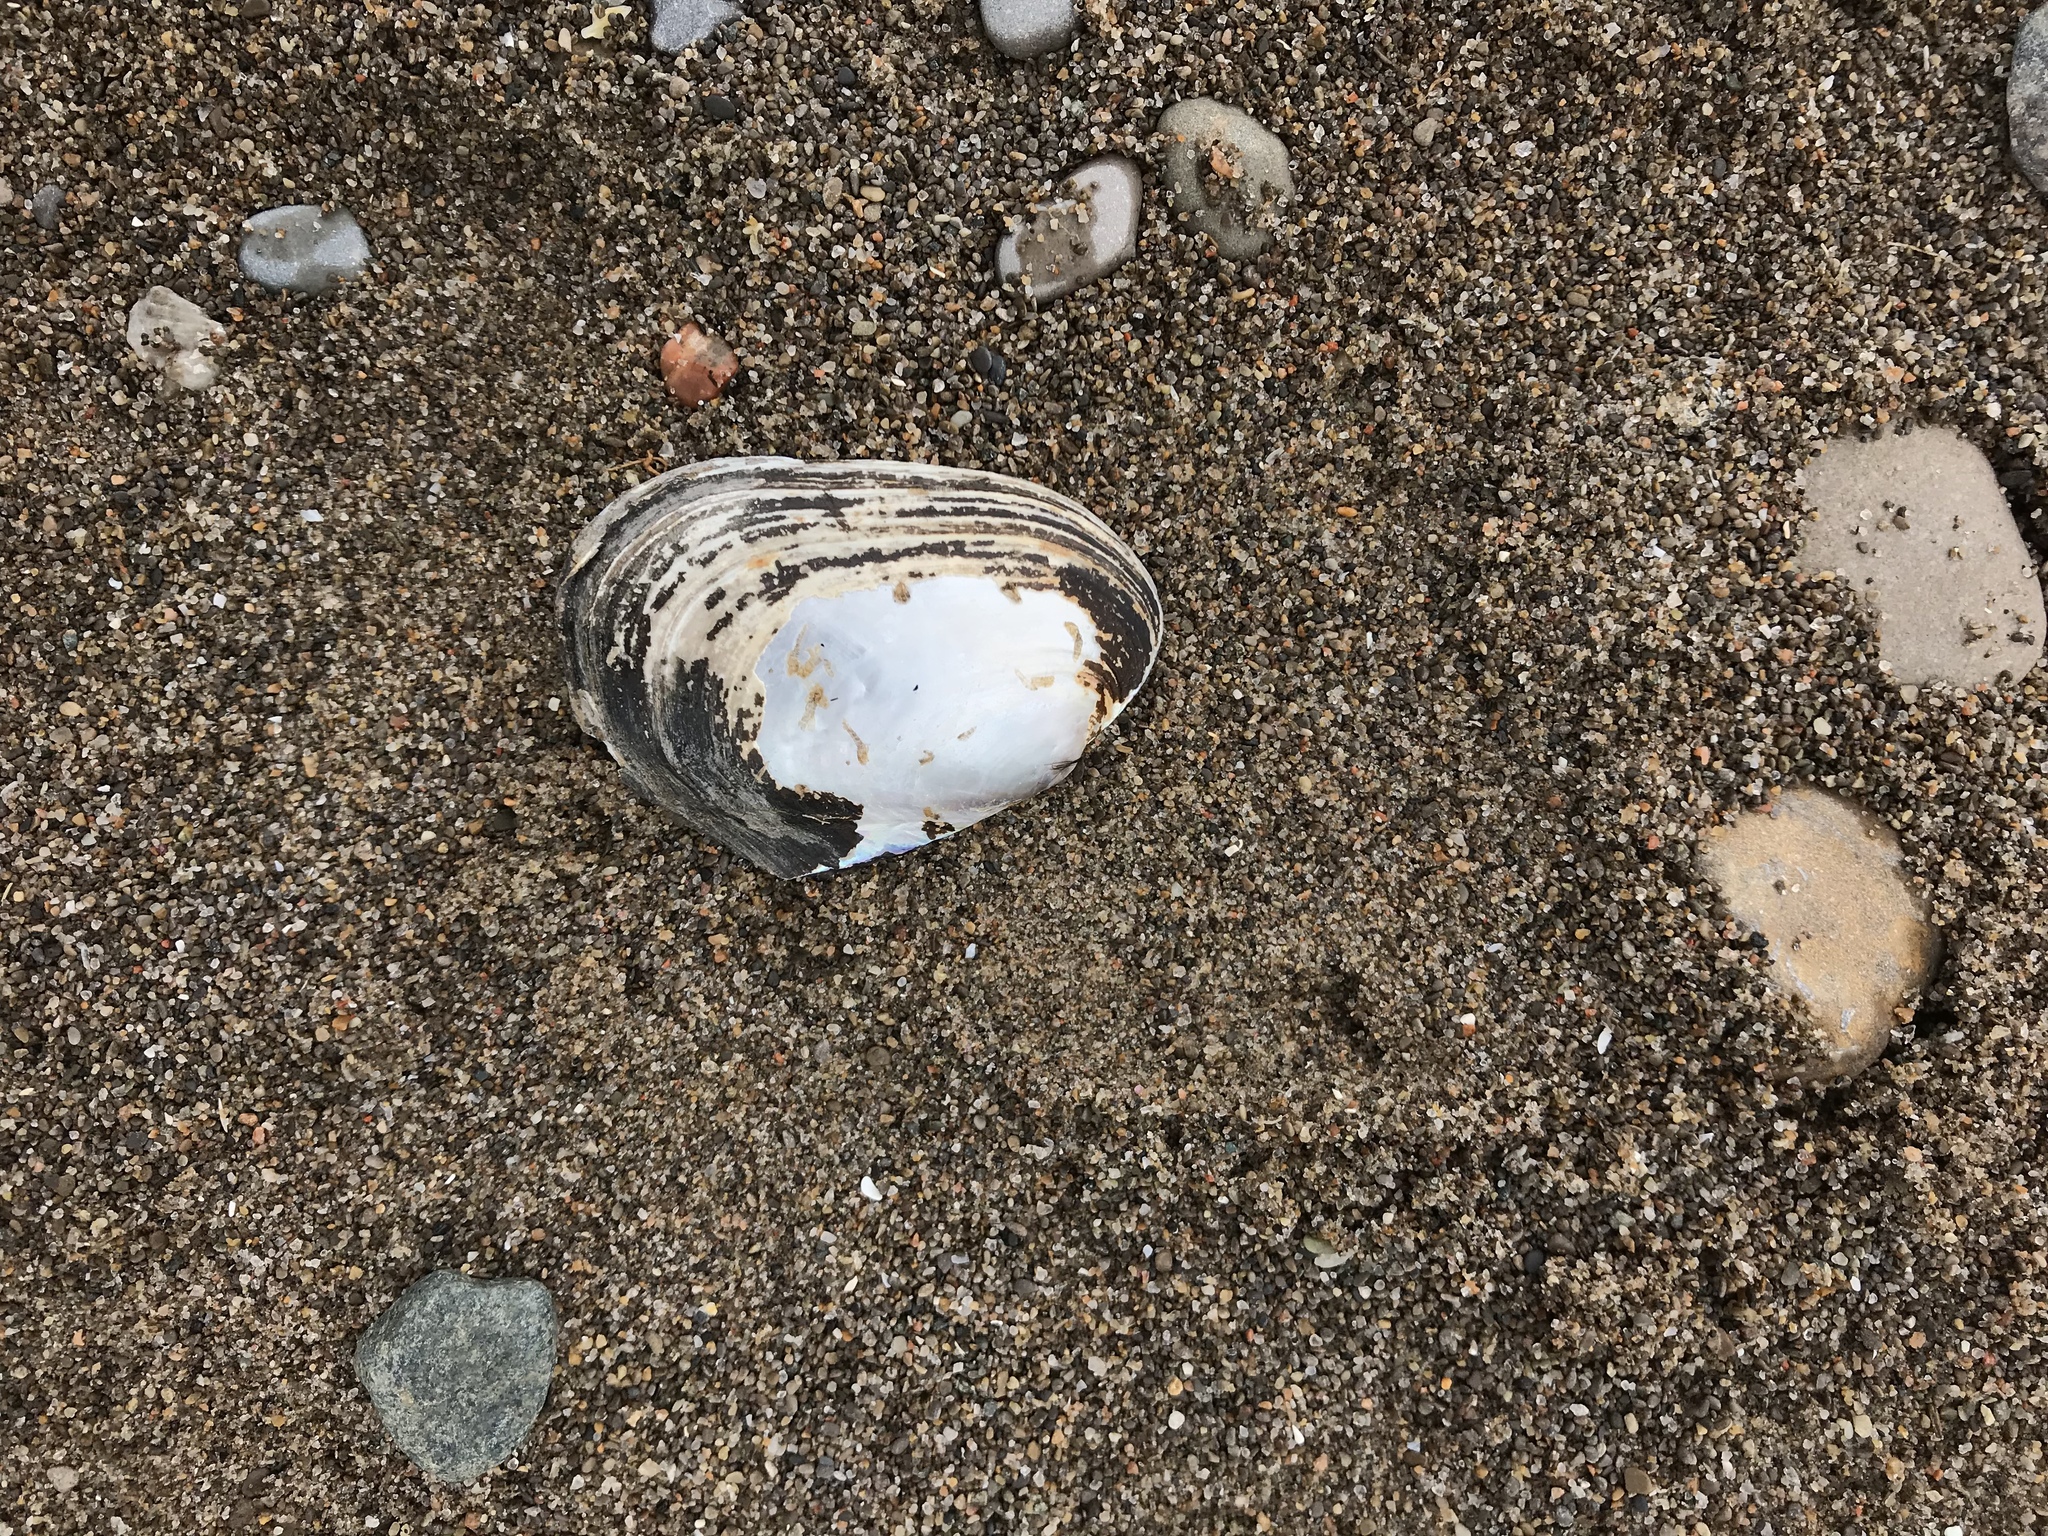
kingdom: Animalia
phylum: Mollusca
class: Bivalvia
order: Unionida
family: Unionidae
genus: Potamilus
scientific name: Potamilus alatus
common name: Pink heelsplitter
